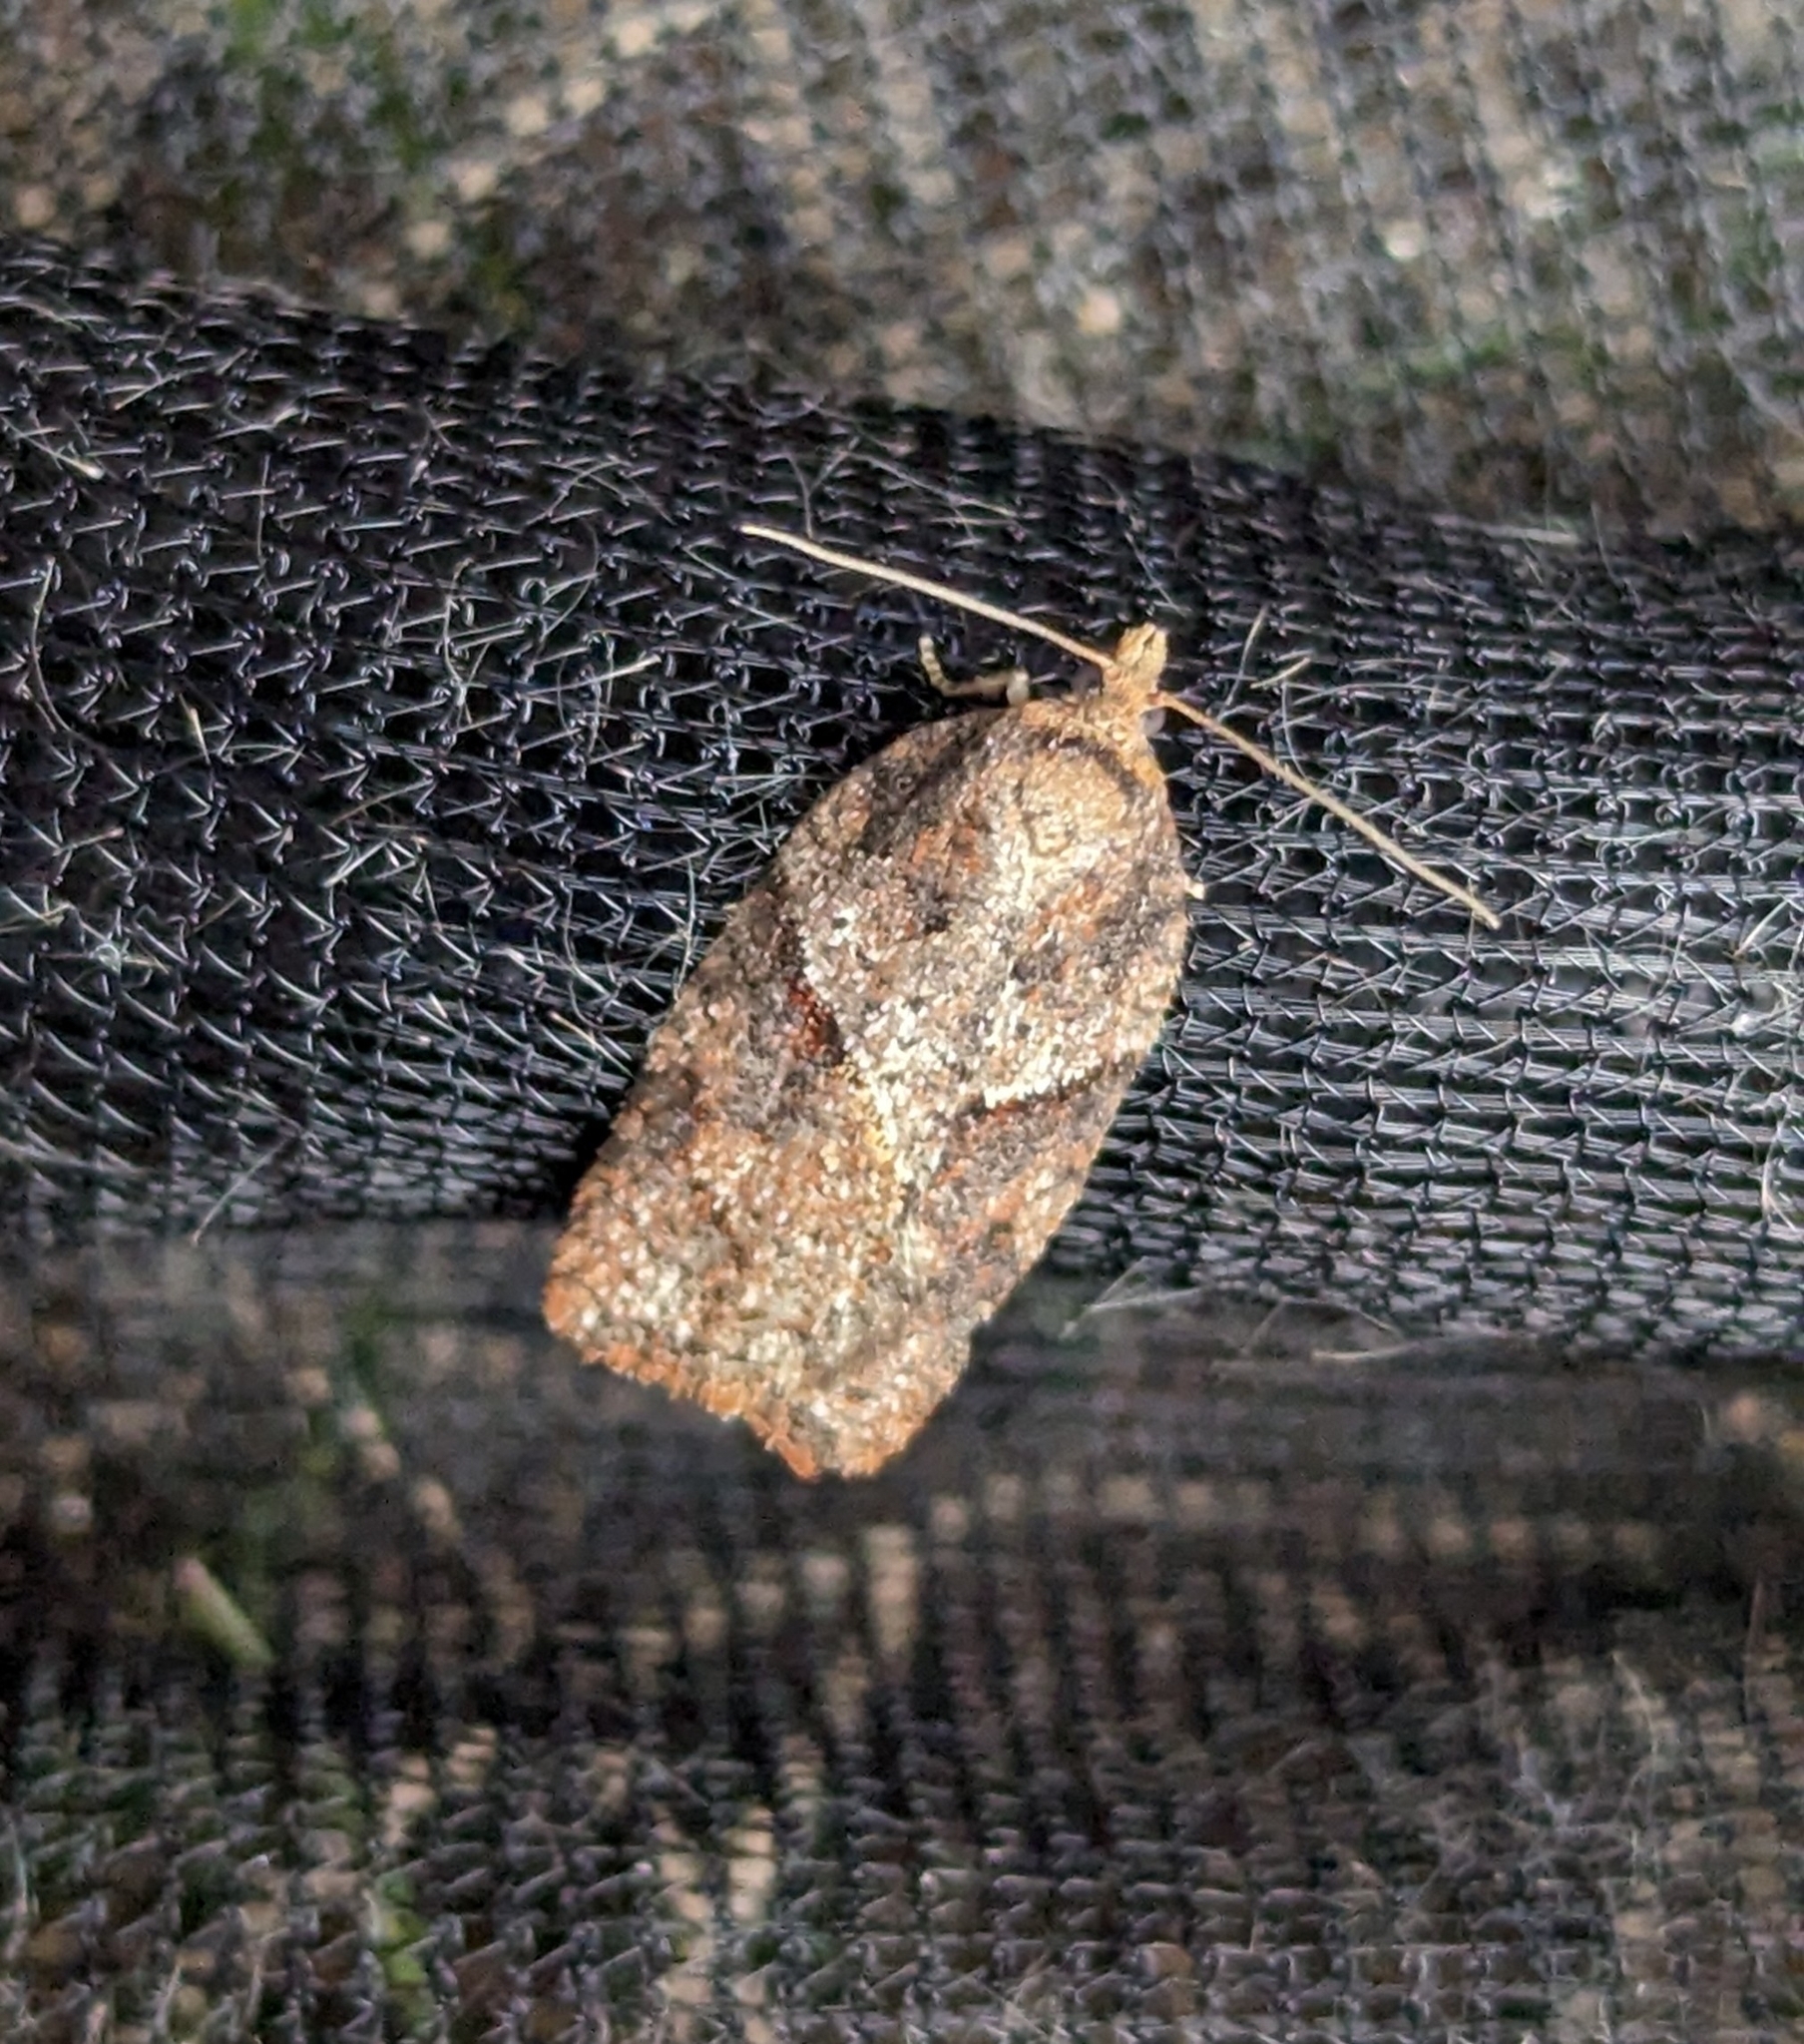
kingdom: Animalia
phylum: Arthropoda
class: Insecta
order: Lepidoptera
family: Tortricidae
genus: Acleris
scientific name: Acleris maccana
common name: Marbled button
